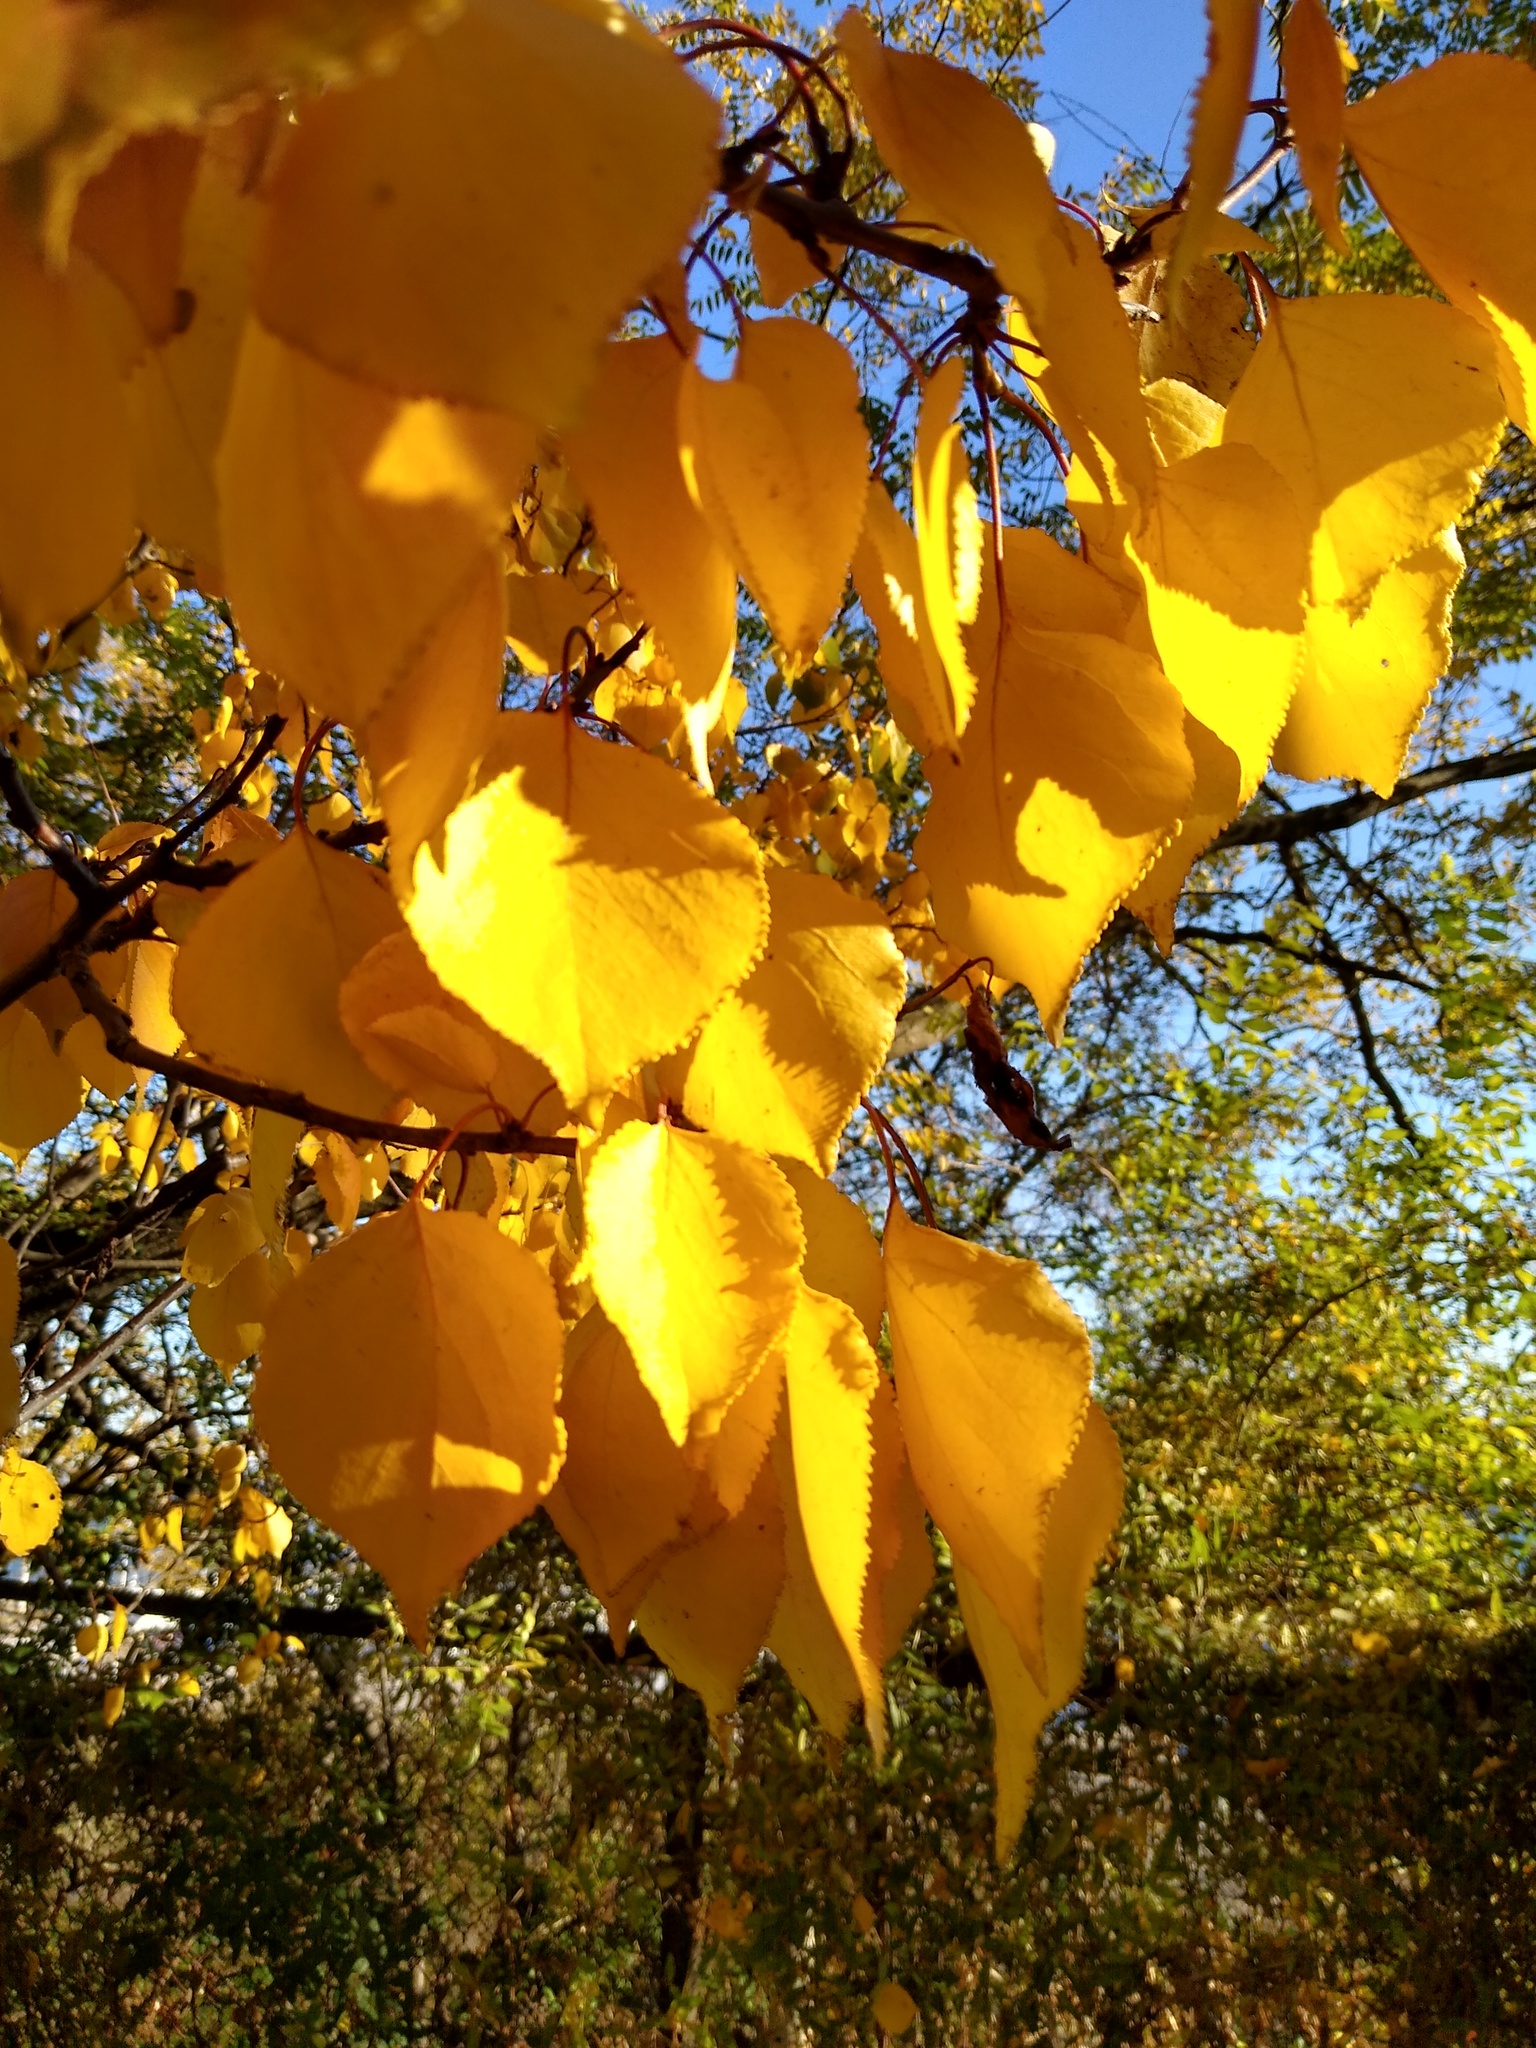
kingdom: Plantae
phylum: Tracheophyta
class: Magnoliopsida
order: Rosales
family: Rosaceae
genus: Prunus
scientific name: Prunus armeniaca
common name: Apricot
